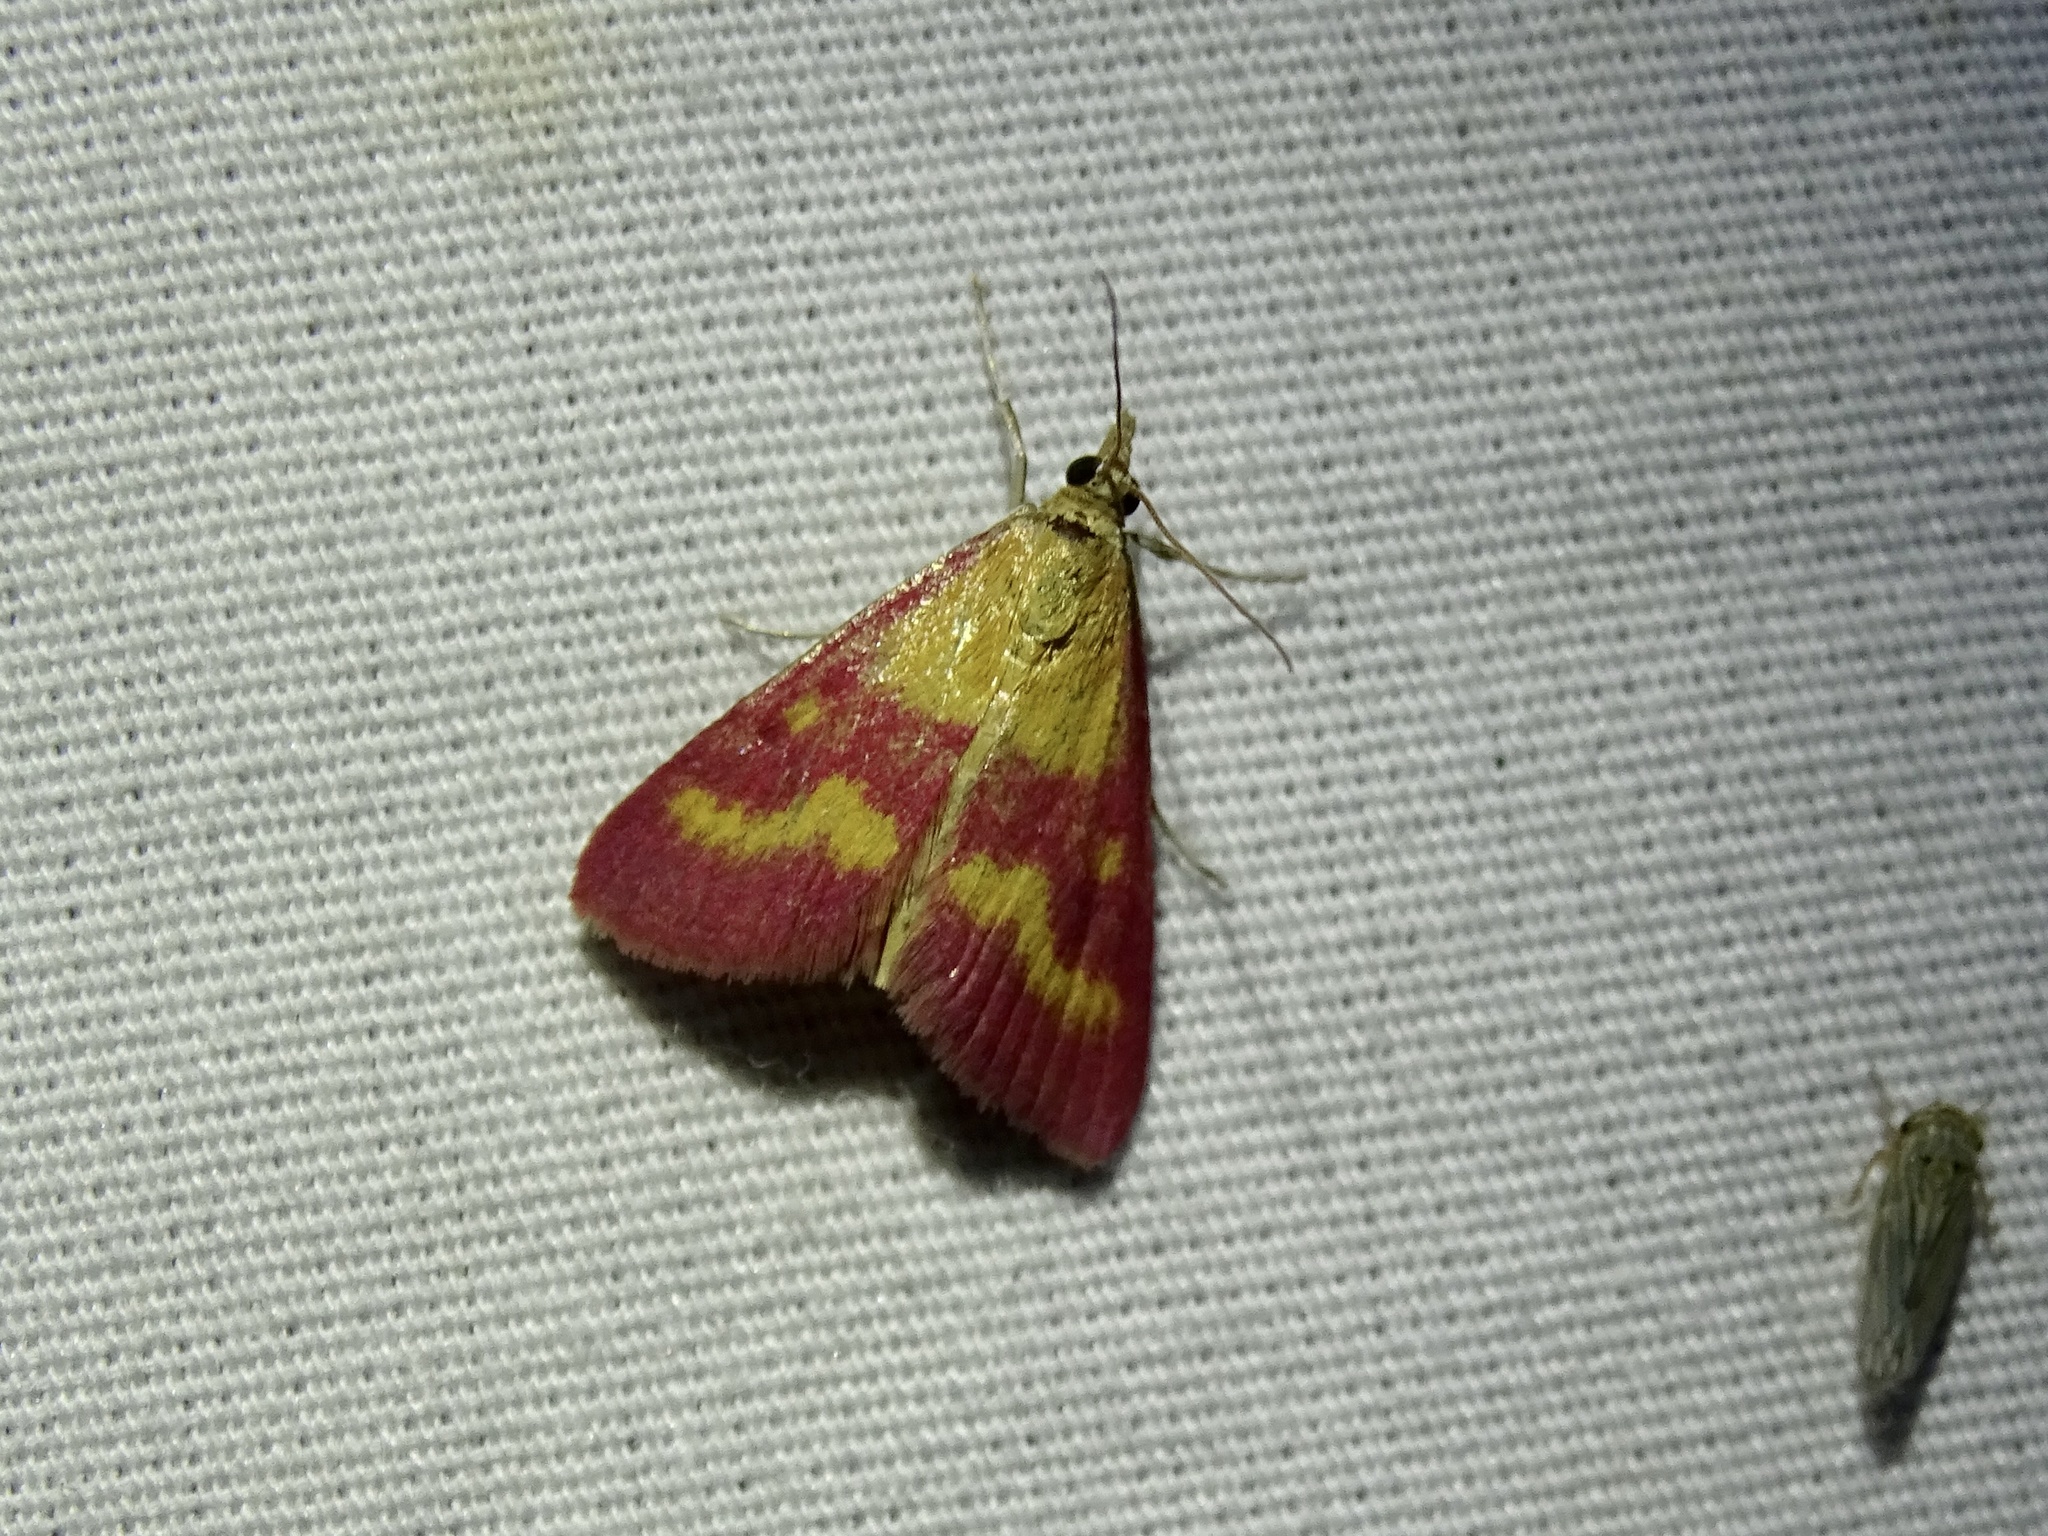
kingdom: Animalia
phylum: Arthropoda
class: Insecta
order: Lepidoptera
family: Crambidae
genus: Pyrausta
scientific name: Pyrausta laticlavia
